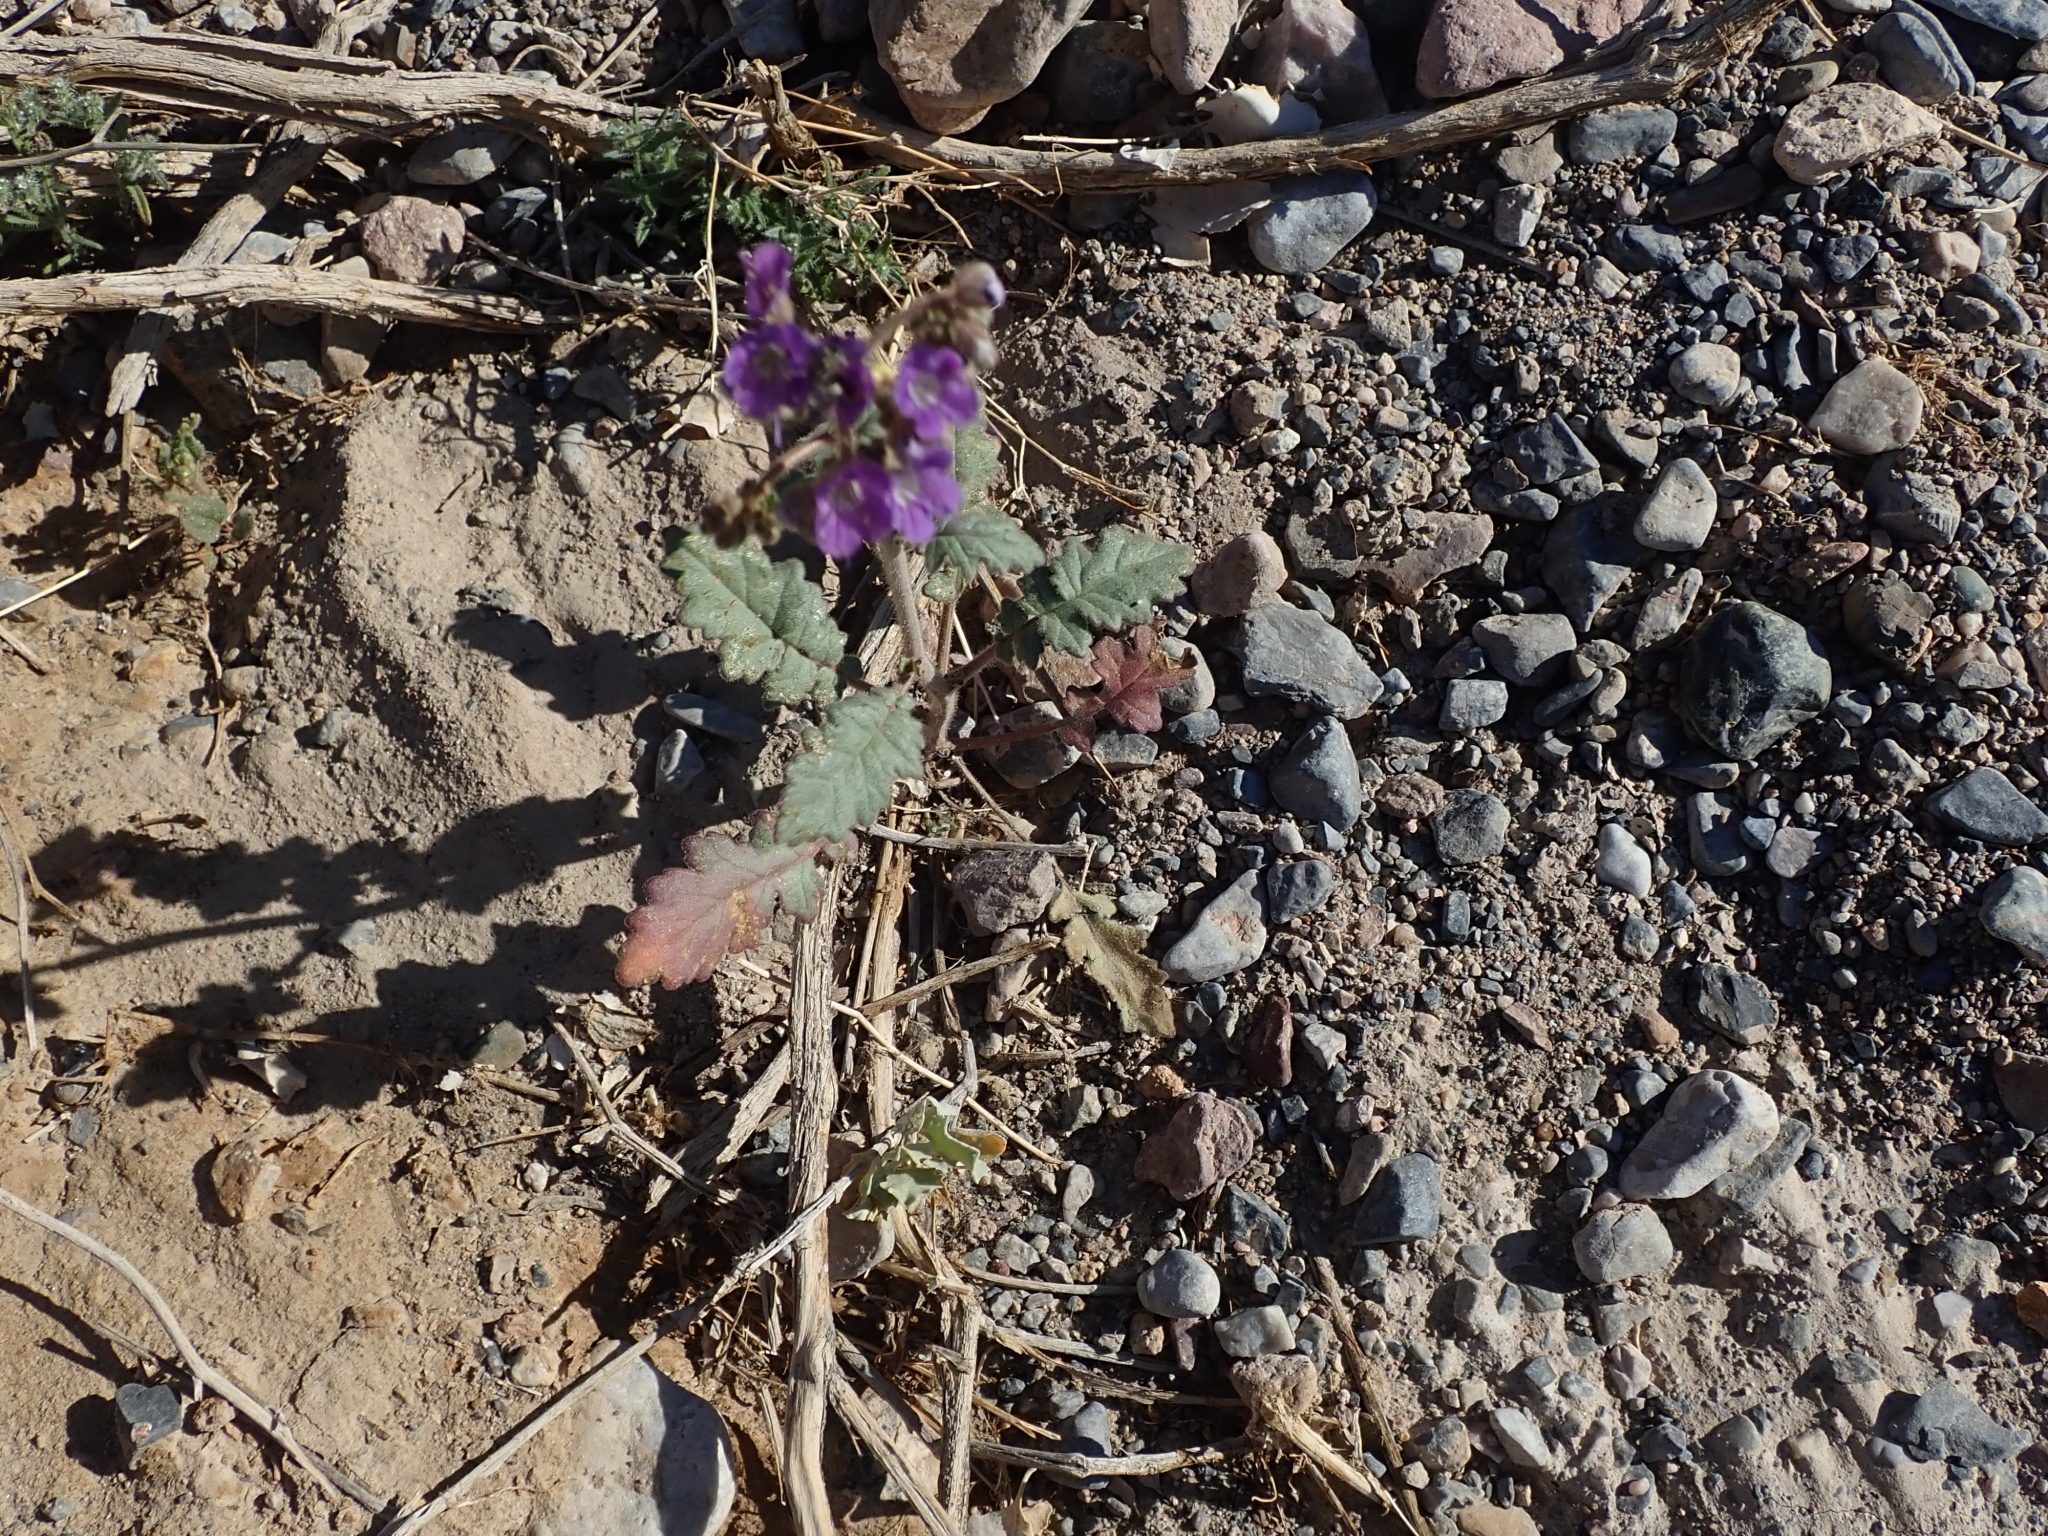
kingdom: Plantae
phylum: Tracheophyta
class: Magnoliopsida
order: Boraginales
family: Hydrophyllaceae
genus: Phacelia
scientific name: Phacelia crenulata
